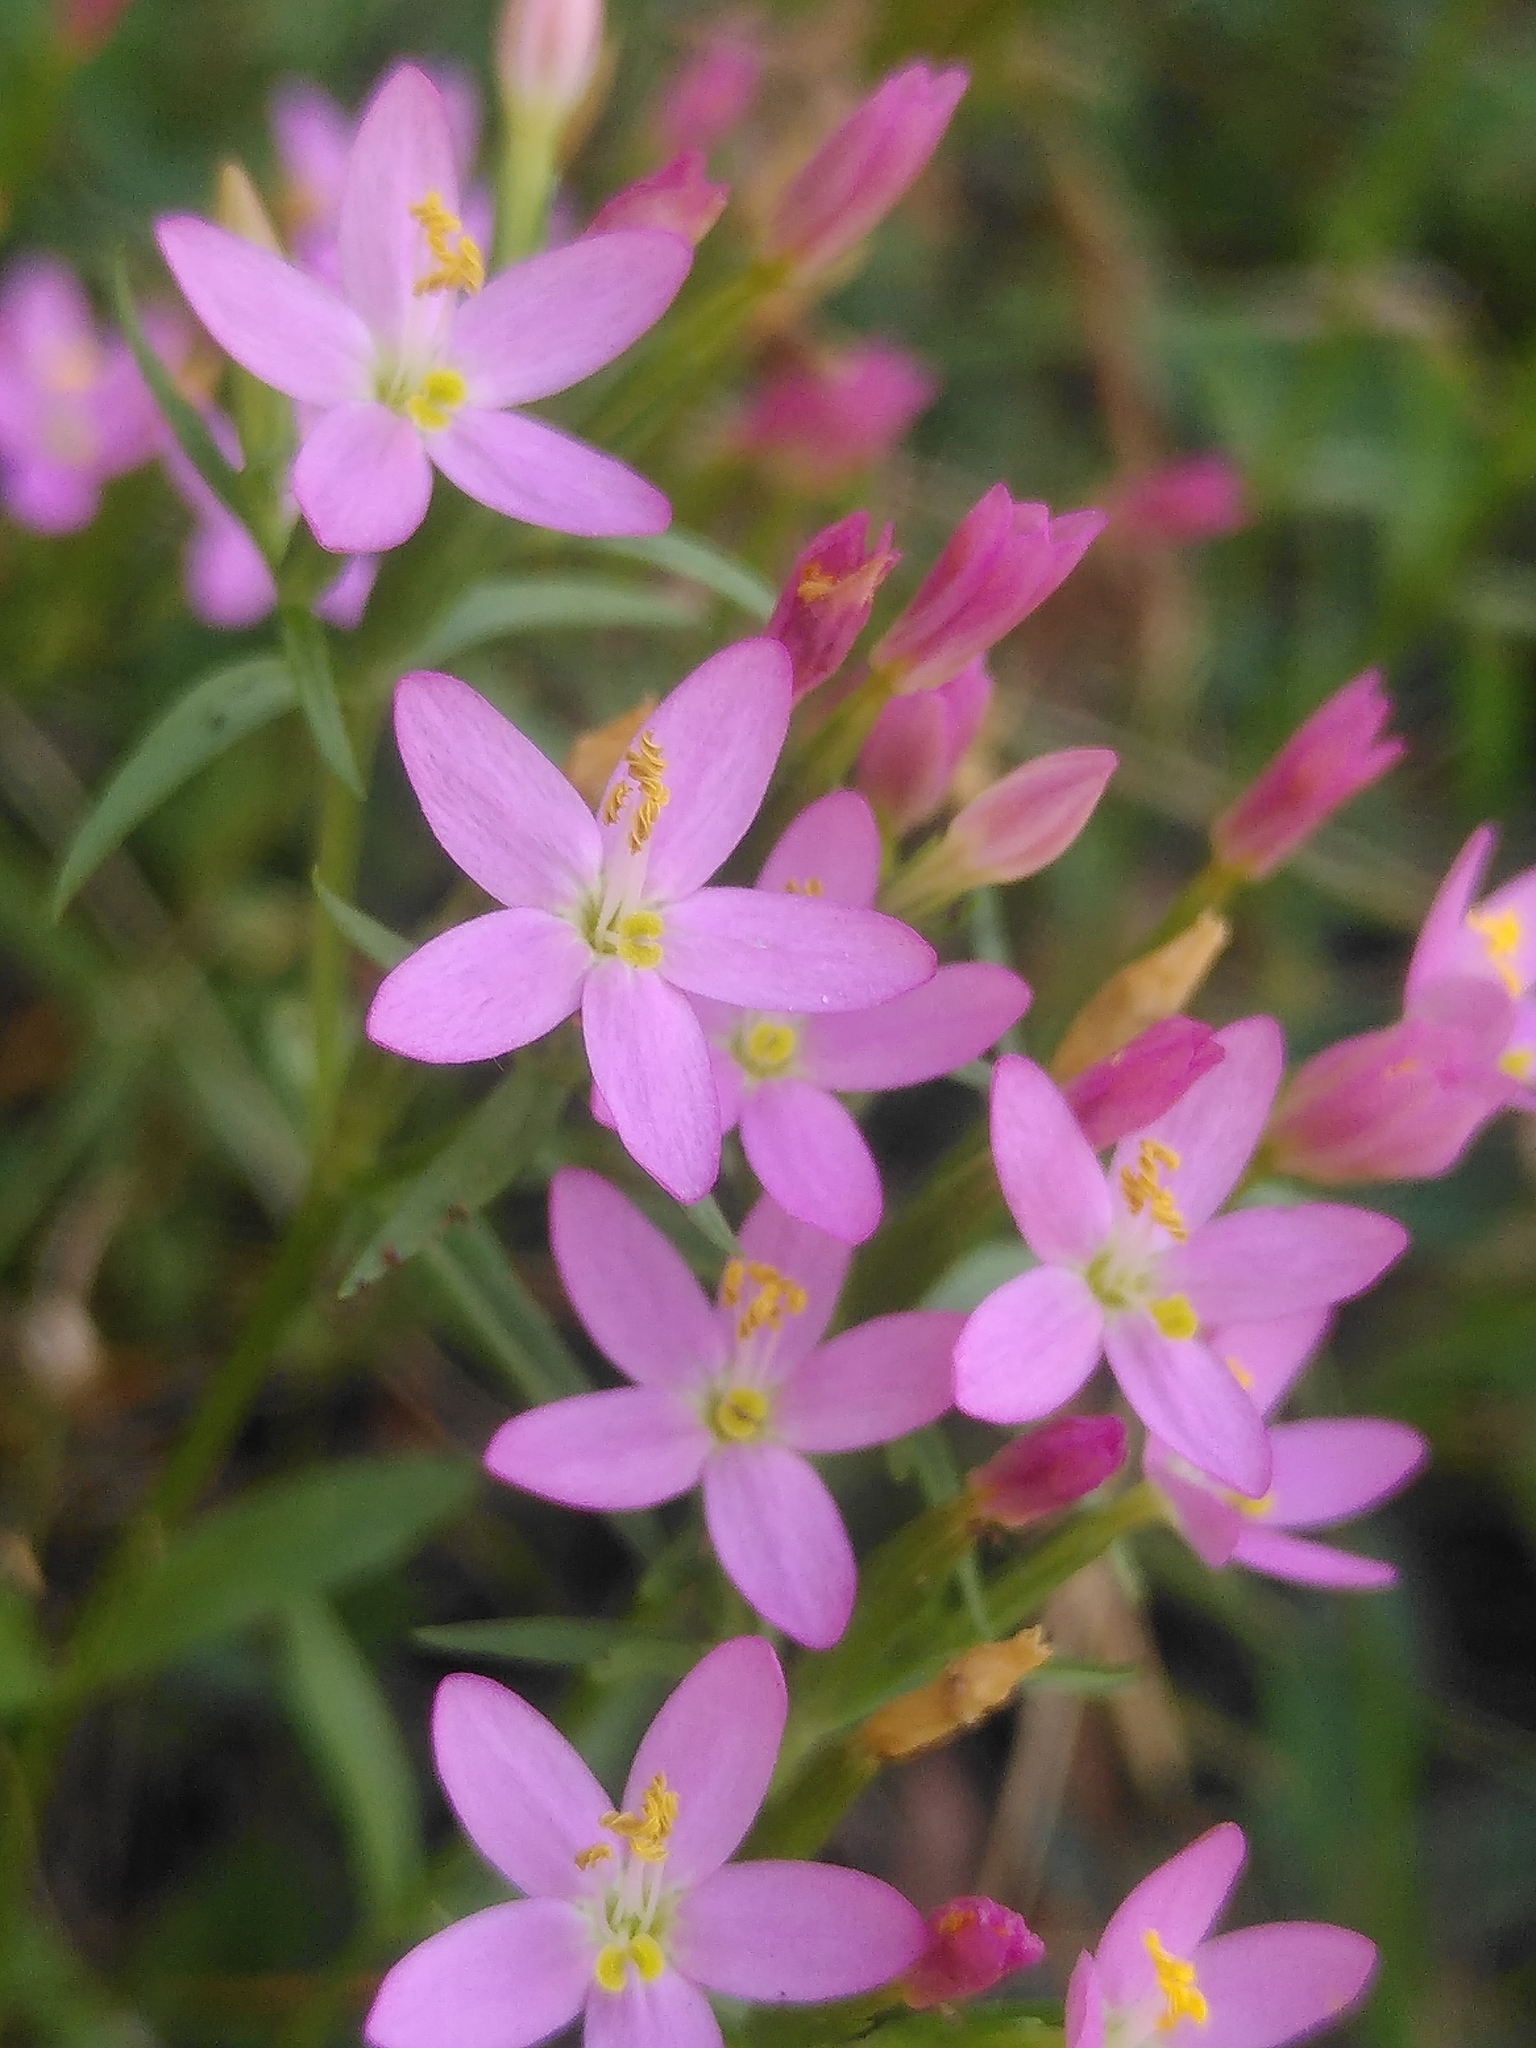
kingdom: Plantae
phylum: Tracheophyta
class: Magnoliopsida
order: Gentianales
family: Gentianaceae
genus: Centaurium
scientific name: Centaurium erythraea
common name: Common centaury
